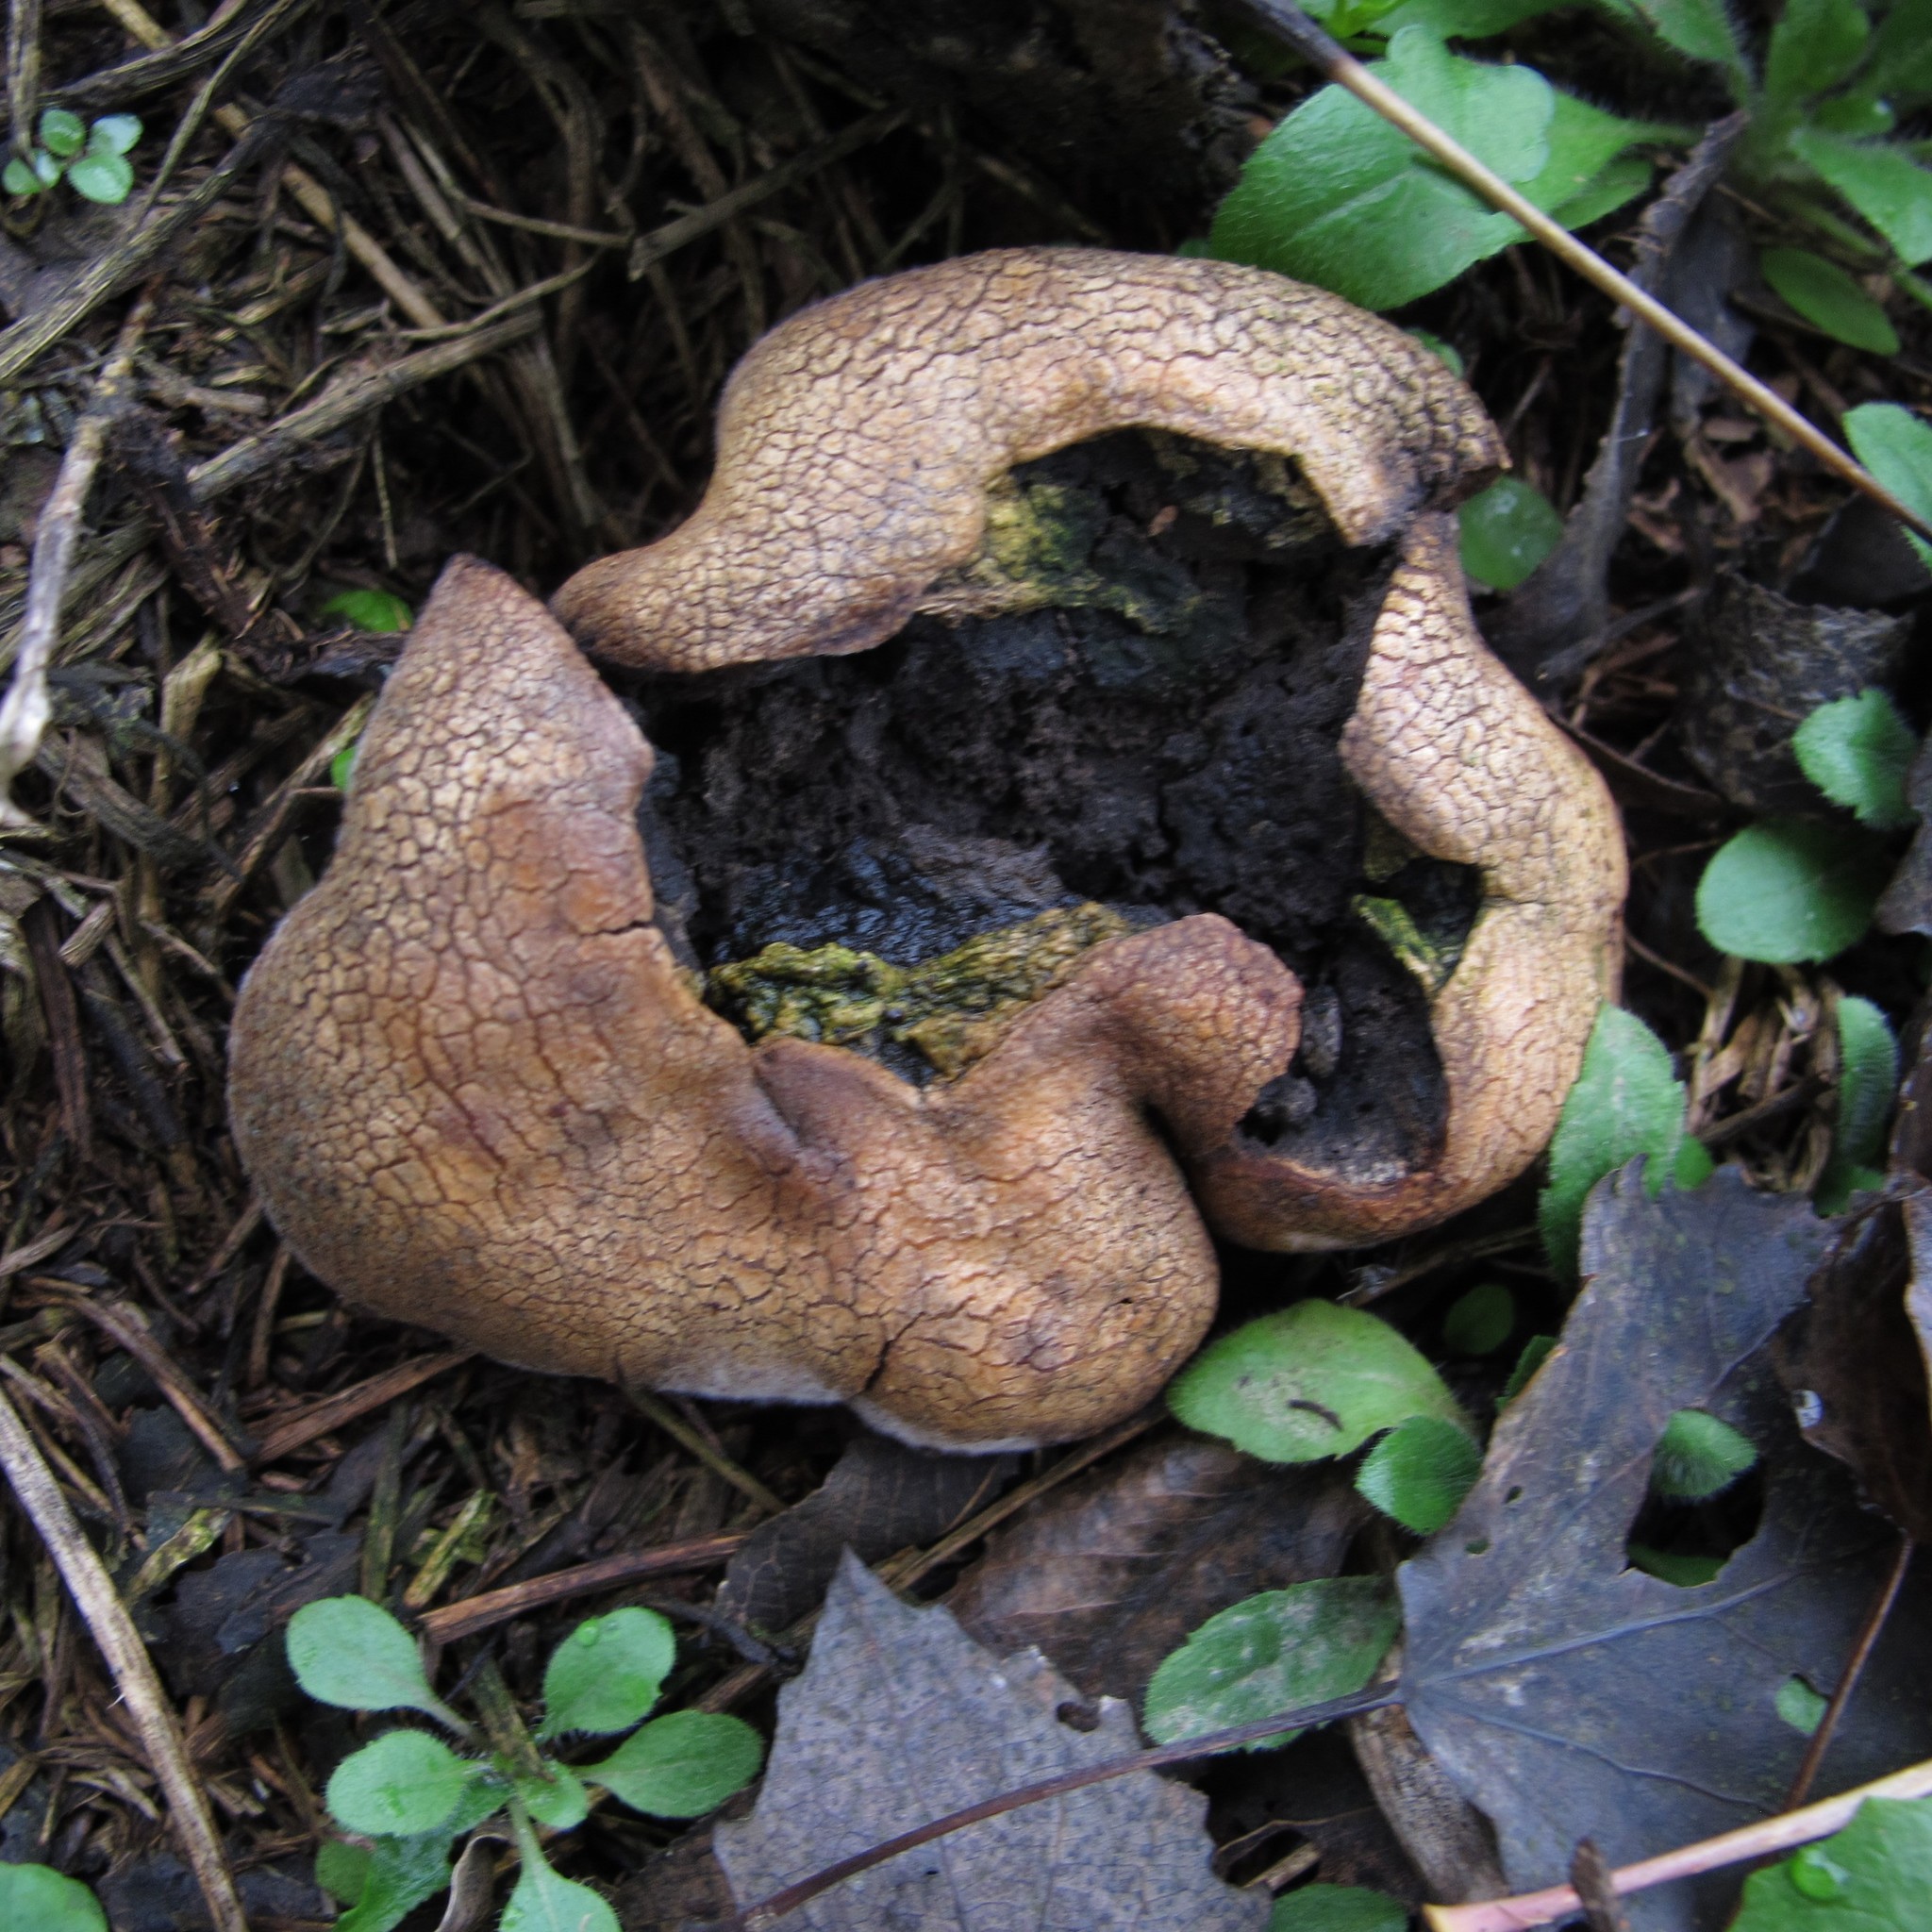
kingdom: Fungi
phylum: Basidiomycota
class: Agaricomycetes
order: Boletales
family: Sclerodermataceae
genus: Scleroderma
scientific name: Scleroderma citrinum
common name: Common earthball
